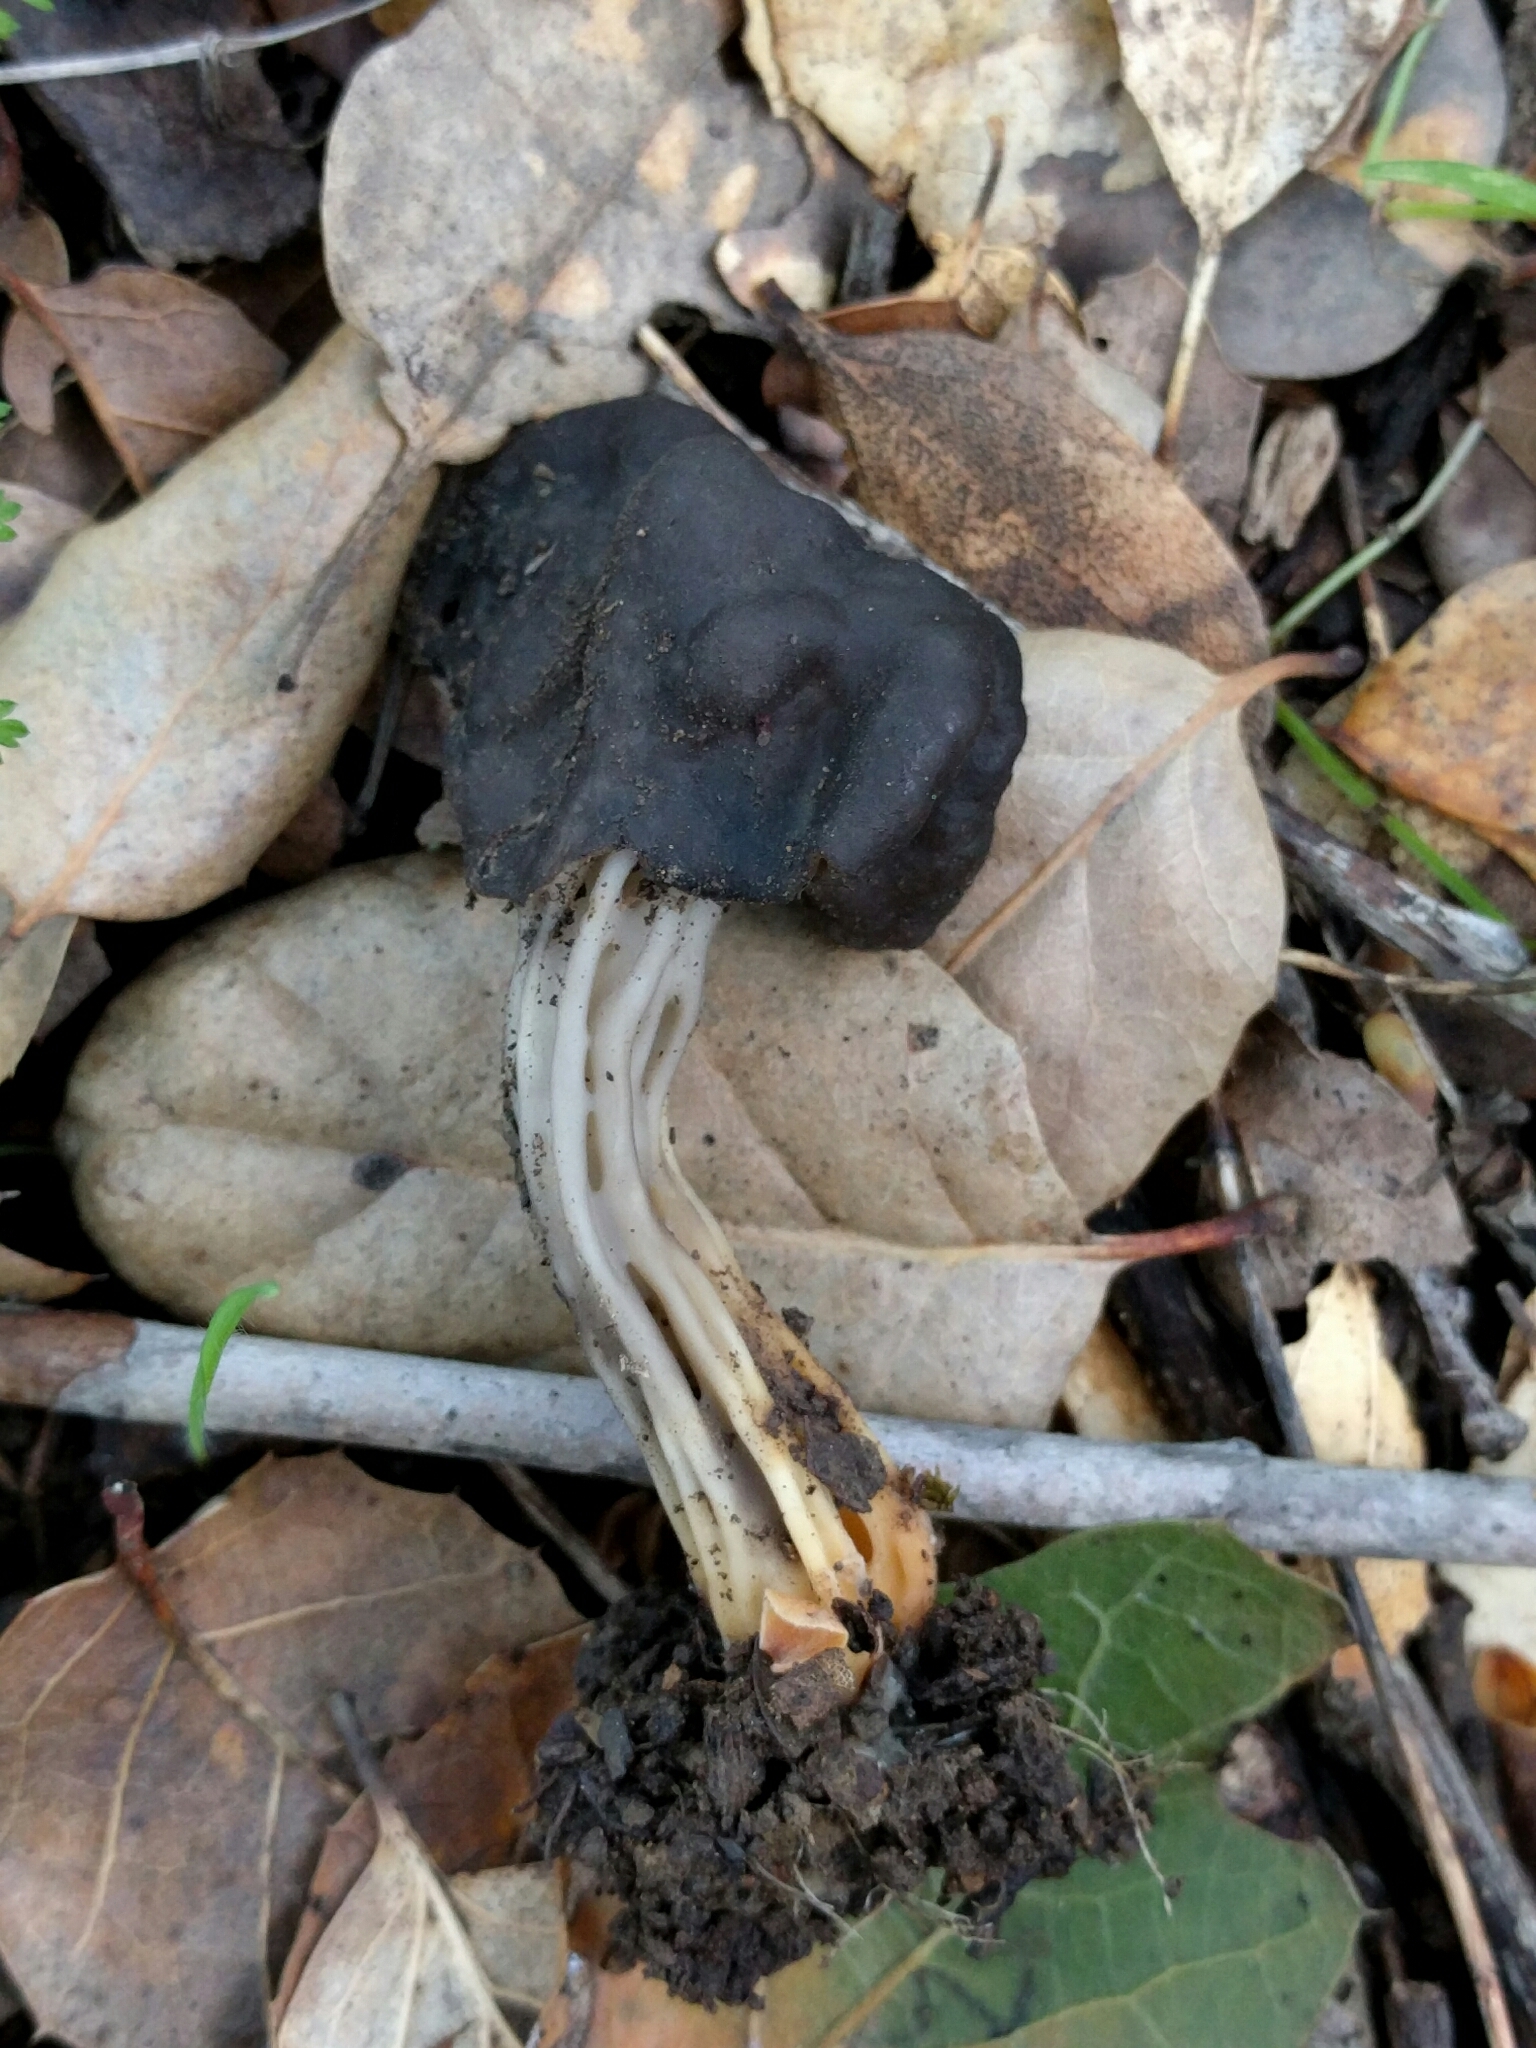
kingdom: Fungi
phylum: Ascomycota
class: Pezizomycetes
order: Pezizales
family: Helvellaceae
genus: Helvella
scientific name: Helvella dryophila
